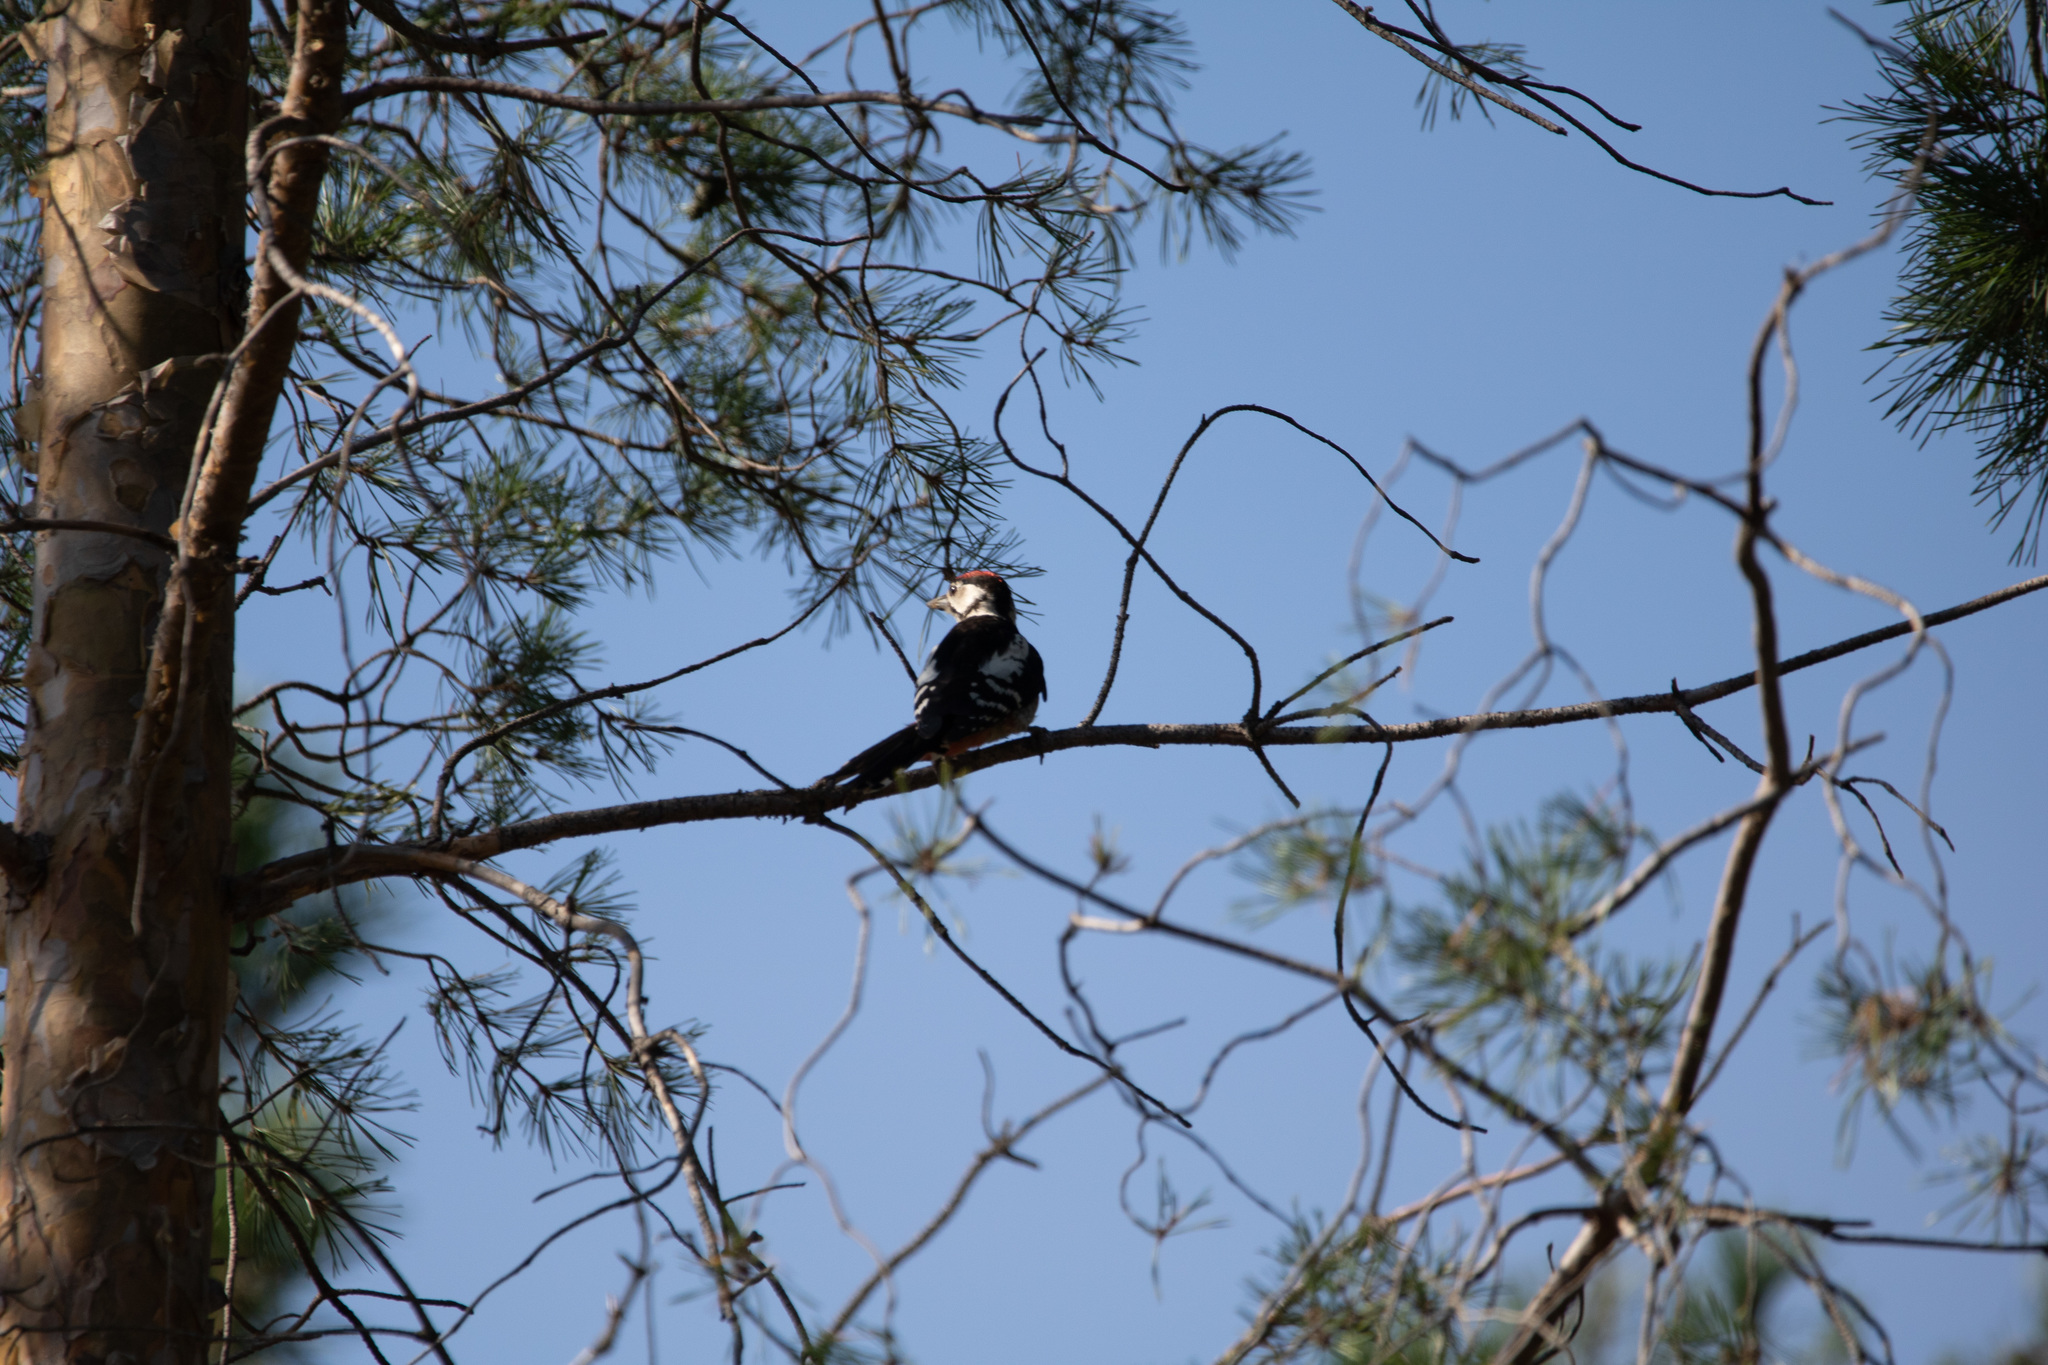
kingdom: Animalia
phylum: Chordata
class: Aves
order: Piciformes
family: Picidae
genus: Dendrocopos
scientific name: Dendrocopos major
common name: Great spotted woodpecker
